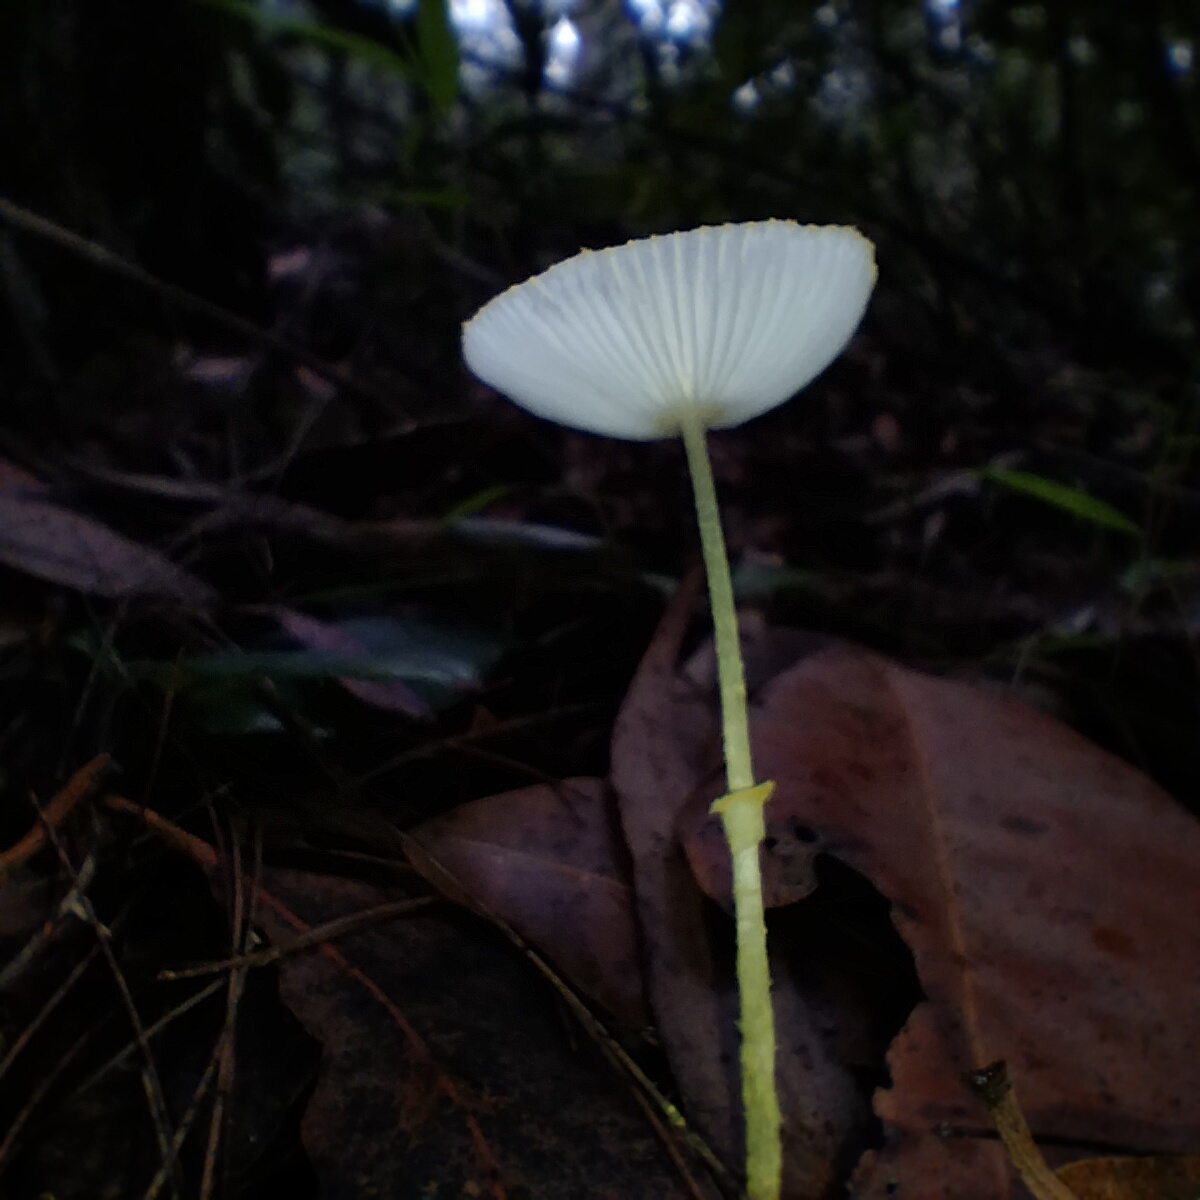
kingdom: Fungi
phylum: Basidiomycota
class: Agaricomycetes
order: Agaricales
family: Agaricaceae
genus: Leucocoprinus
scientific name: Leucocoprinus fragilissimus
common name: Fragile dapperling
